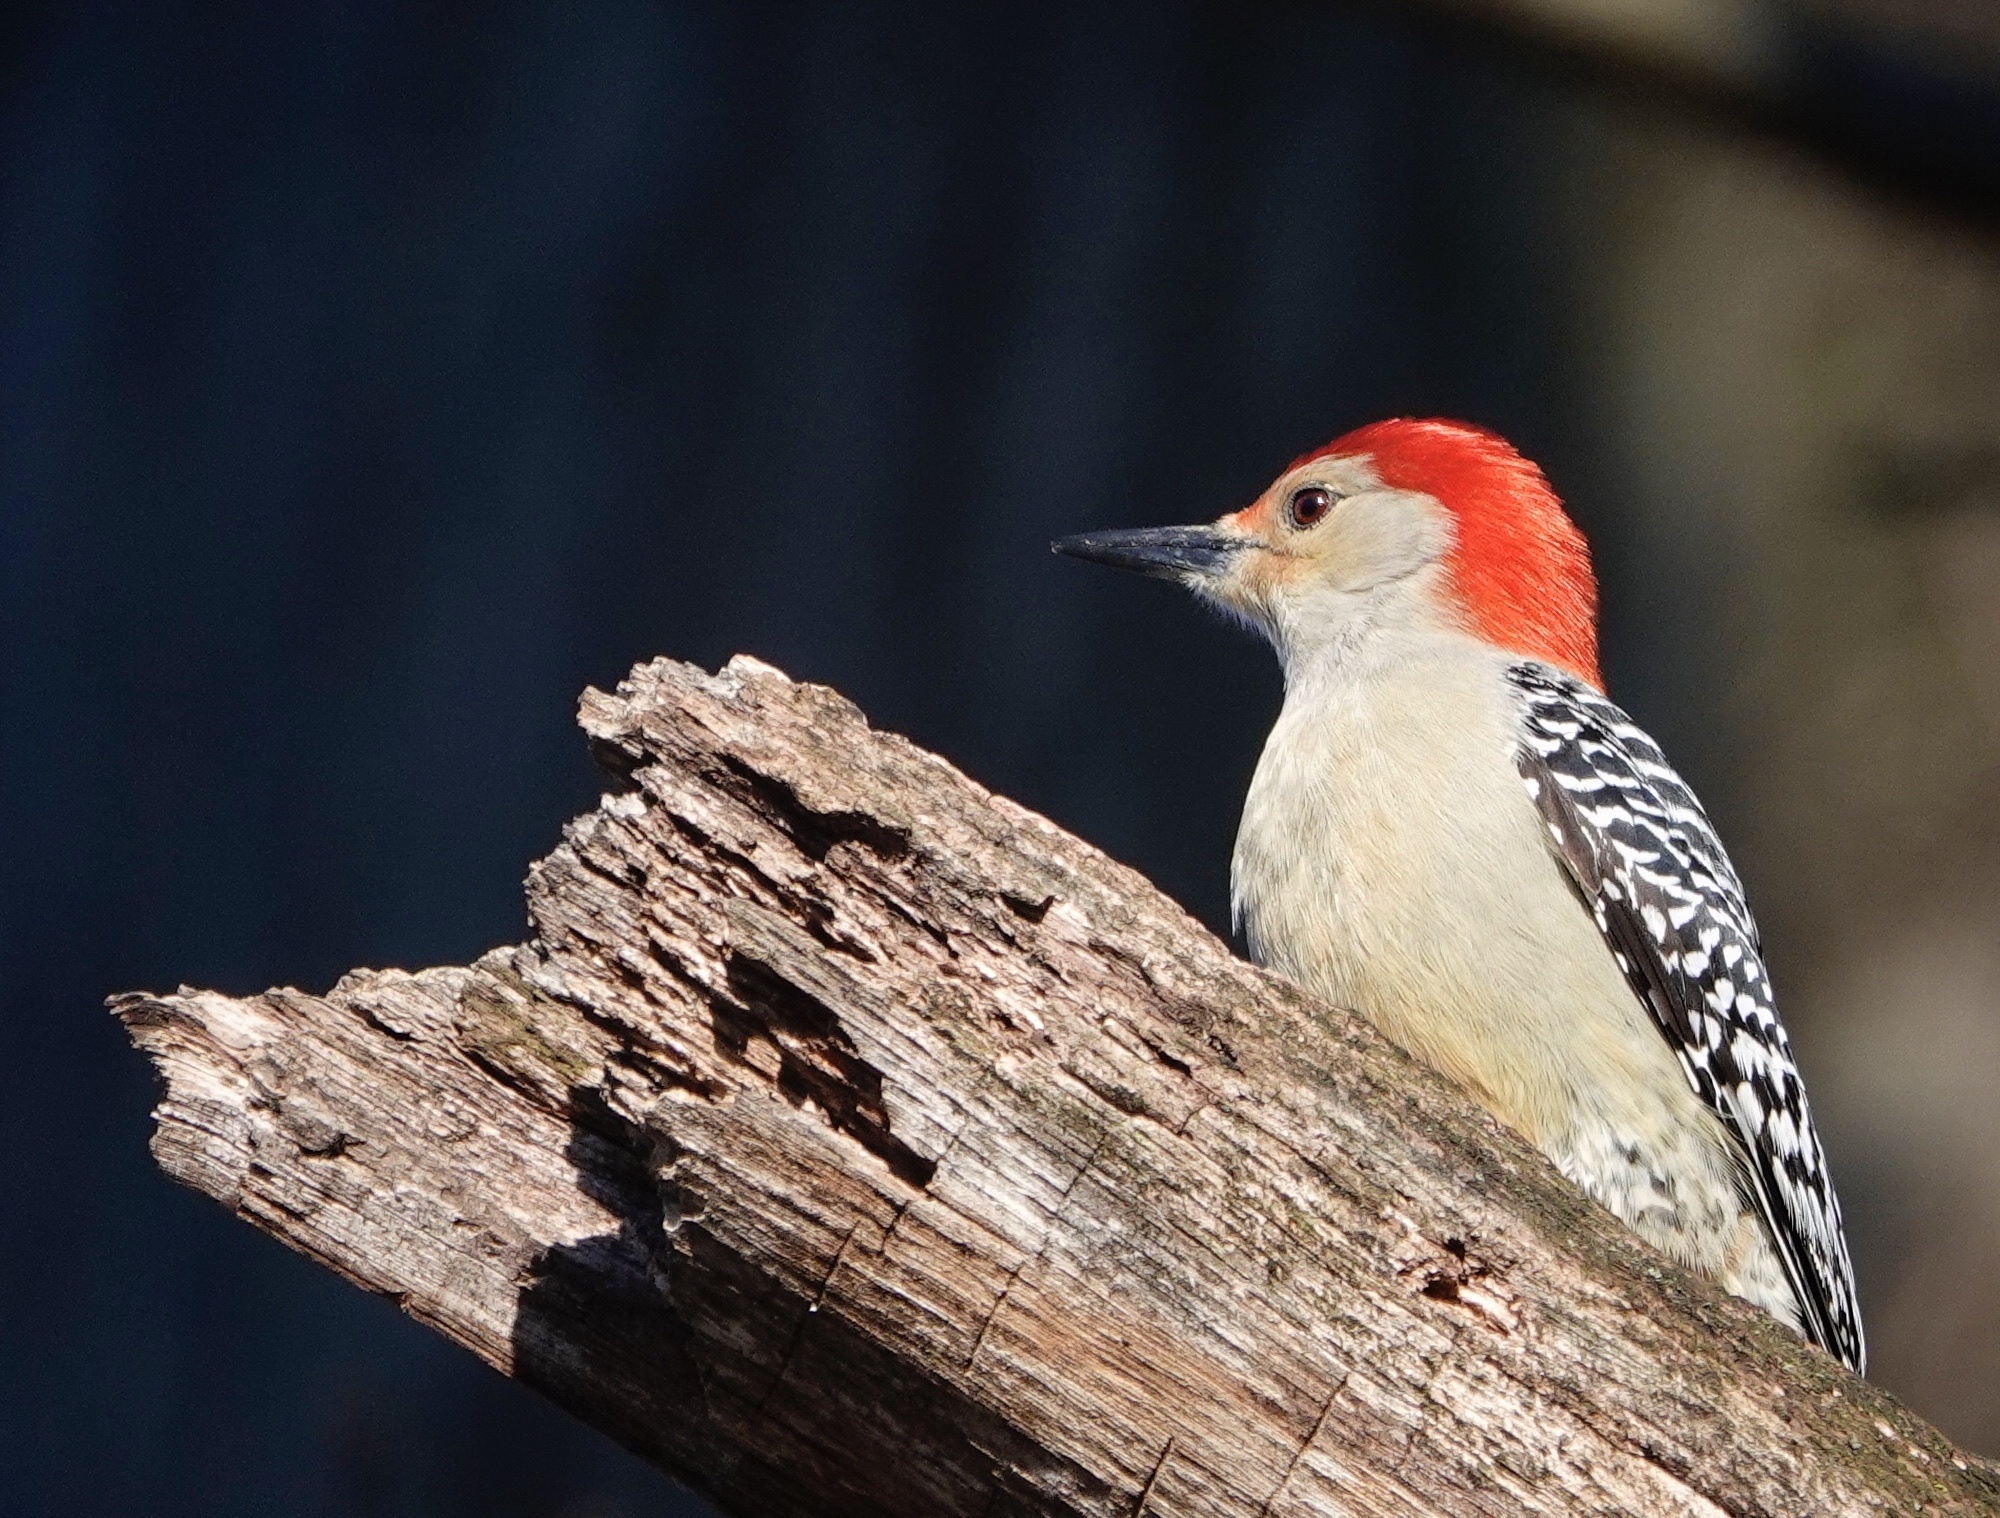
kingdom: Animalia
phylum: Chordata
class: Aves
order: Piciformes
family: Picidae
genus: Melanerpes
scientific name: Melanerpes carolinus
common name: Red-bellied woodpecker
